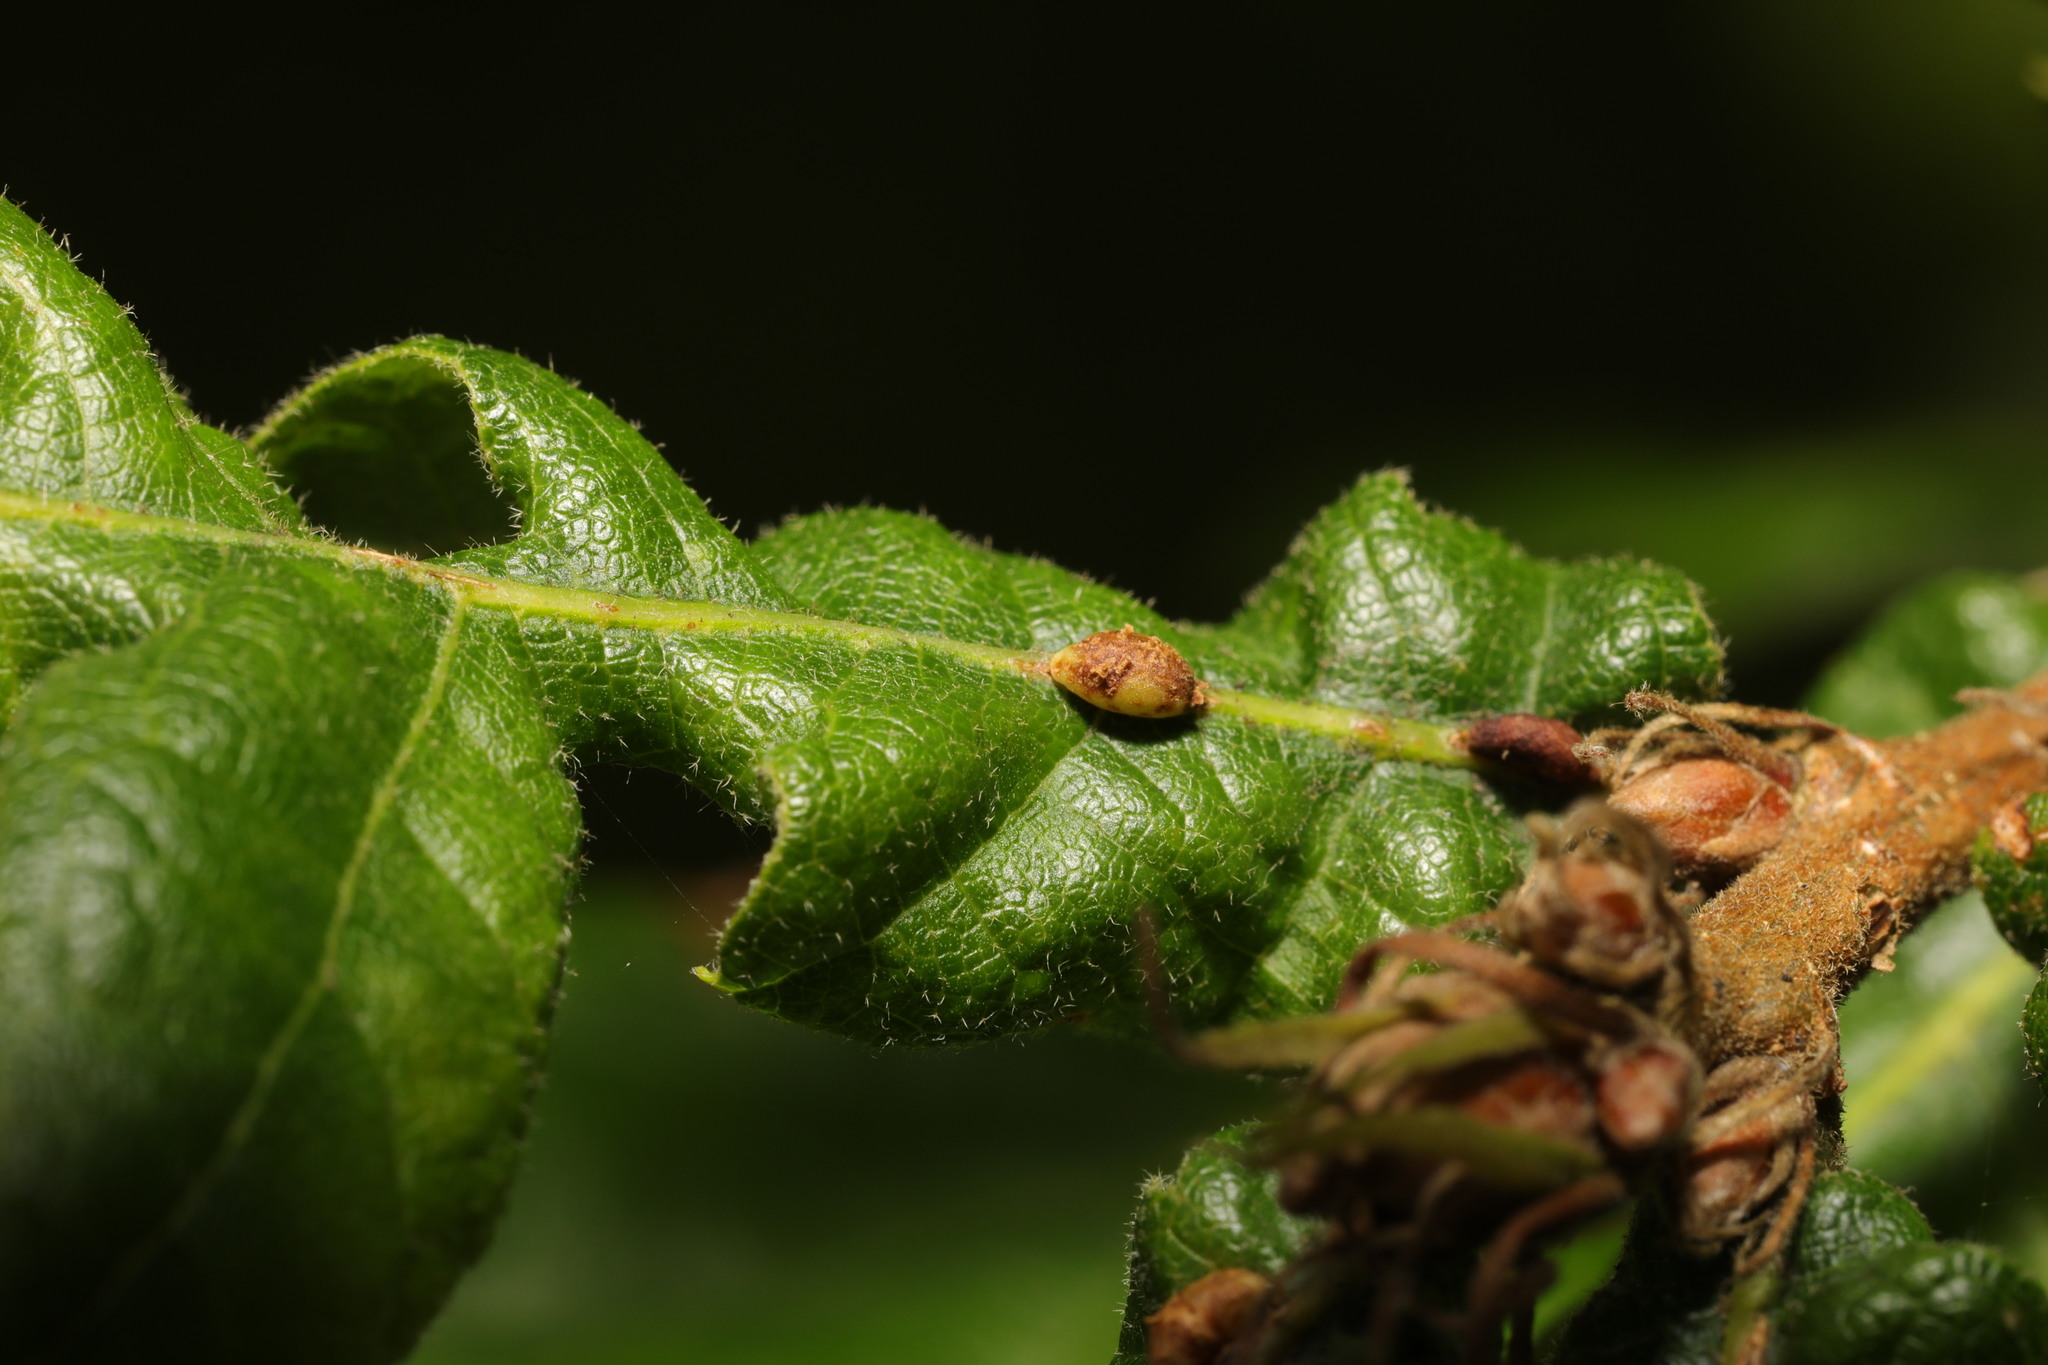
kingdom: Animalia
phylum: Arthropoda
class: Insecta
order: Hymenoptera
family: Cynipidae
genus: Neuroterus
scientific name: Neuroterus saliens
